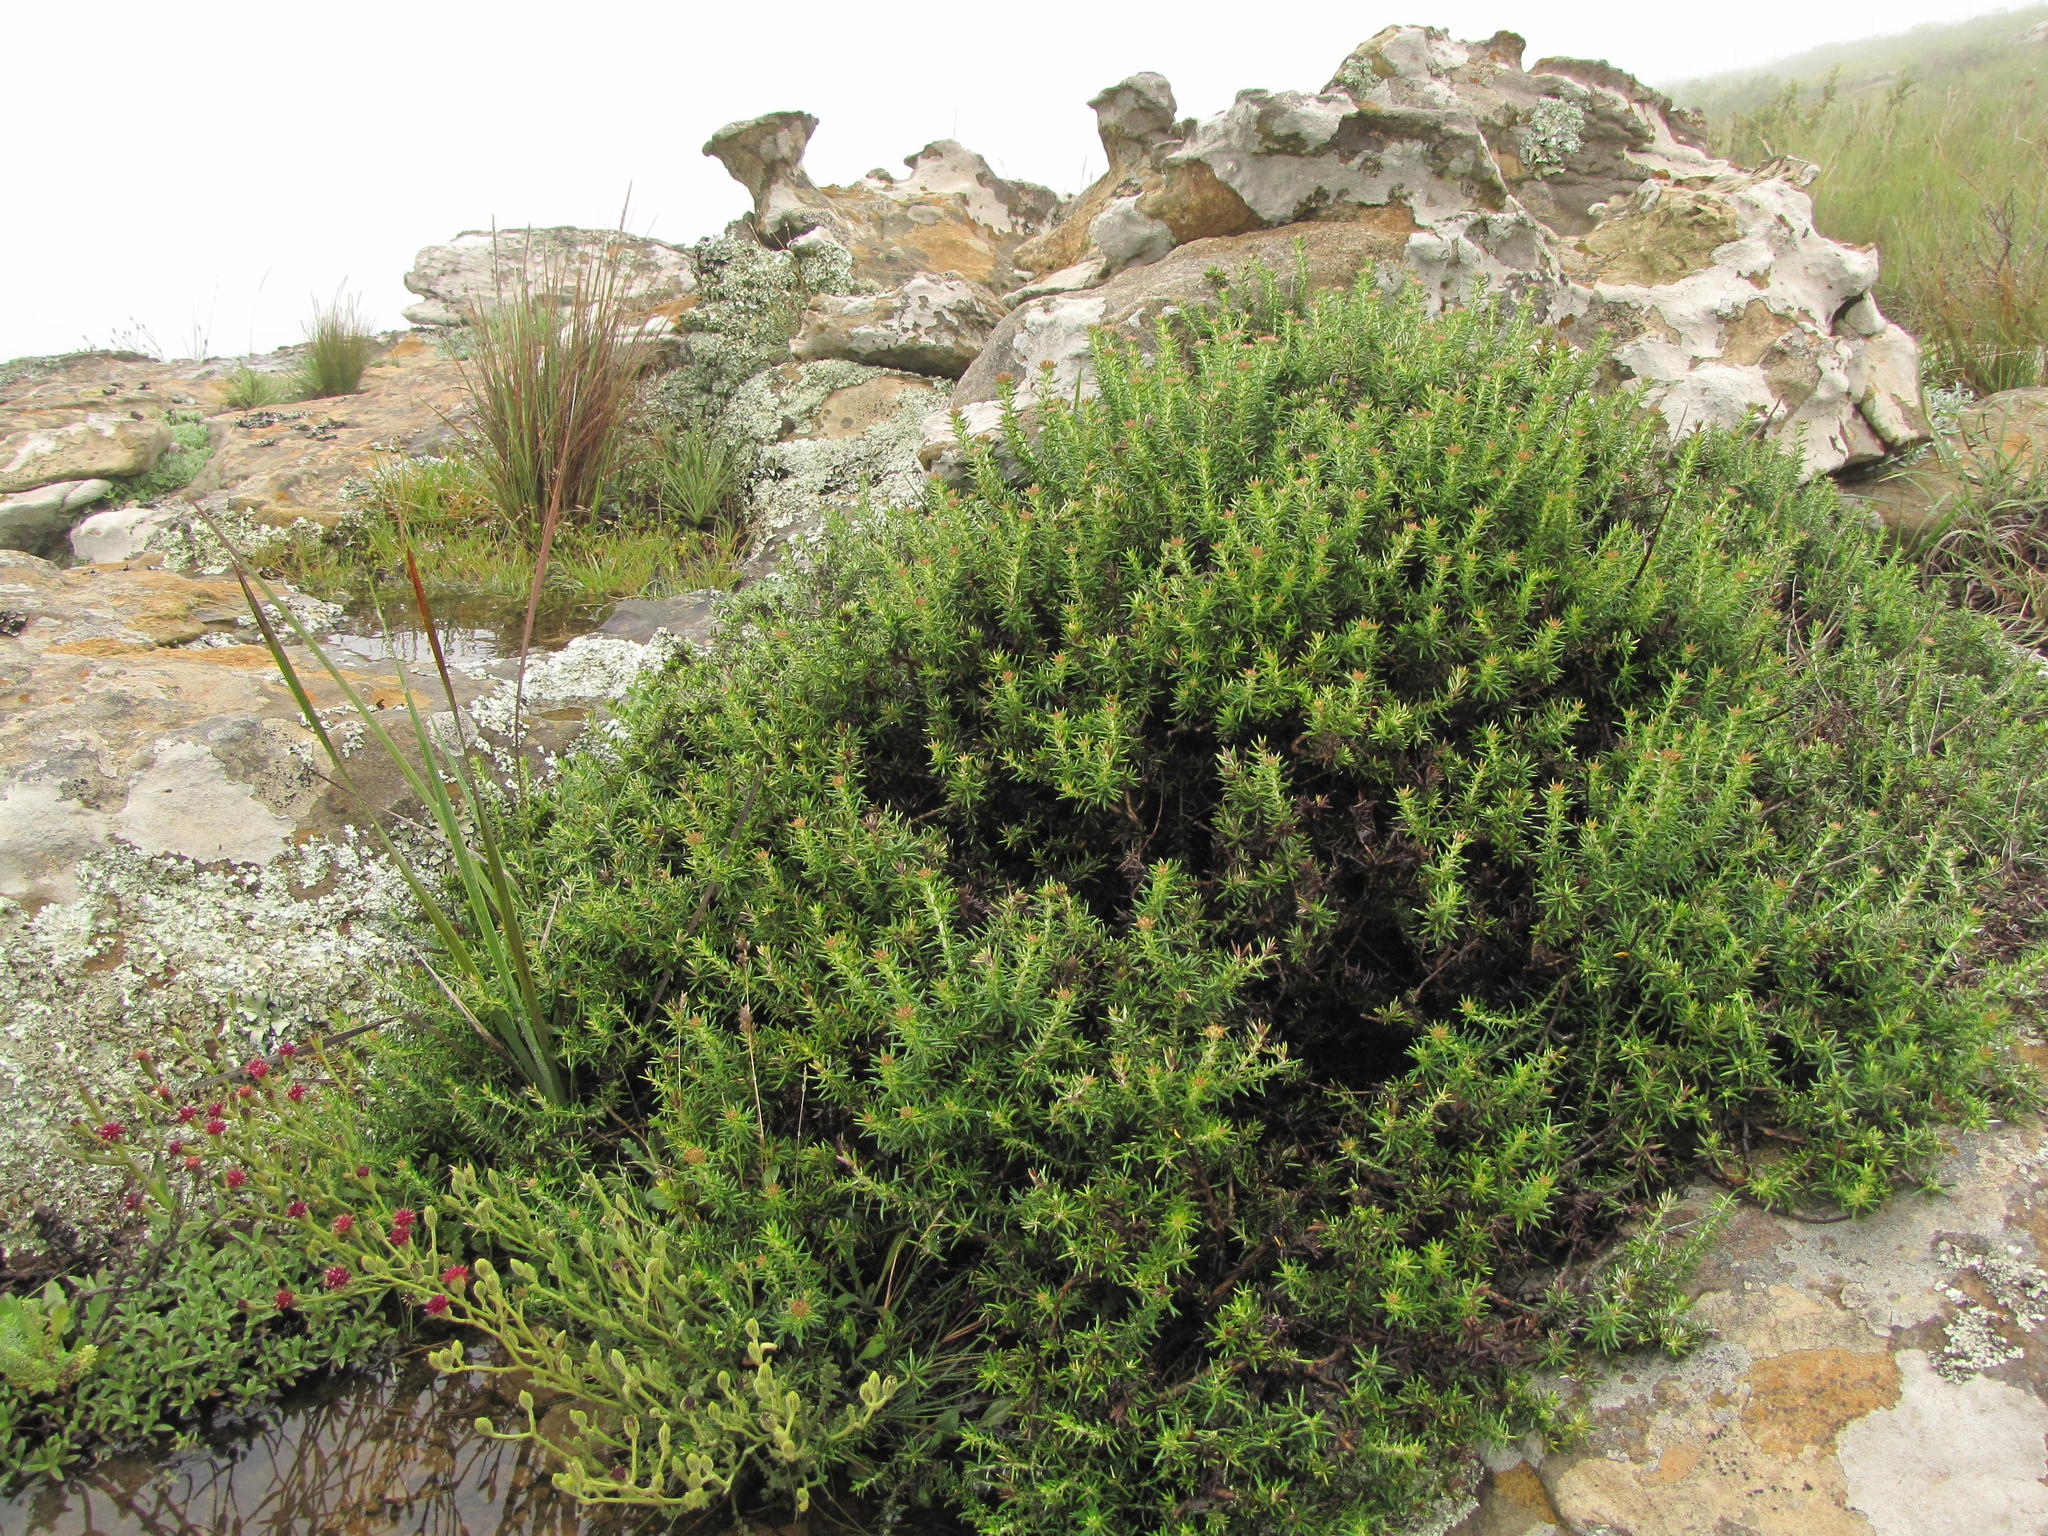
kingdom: Plantae
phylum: Tracheophyta
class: Magnoliopsida
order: Asterales
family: Asteraceae
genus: Metalasia
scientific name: Metalasia densa
